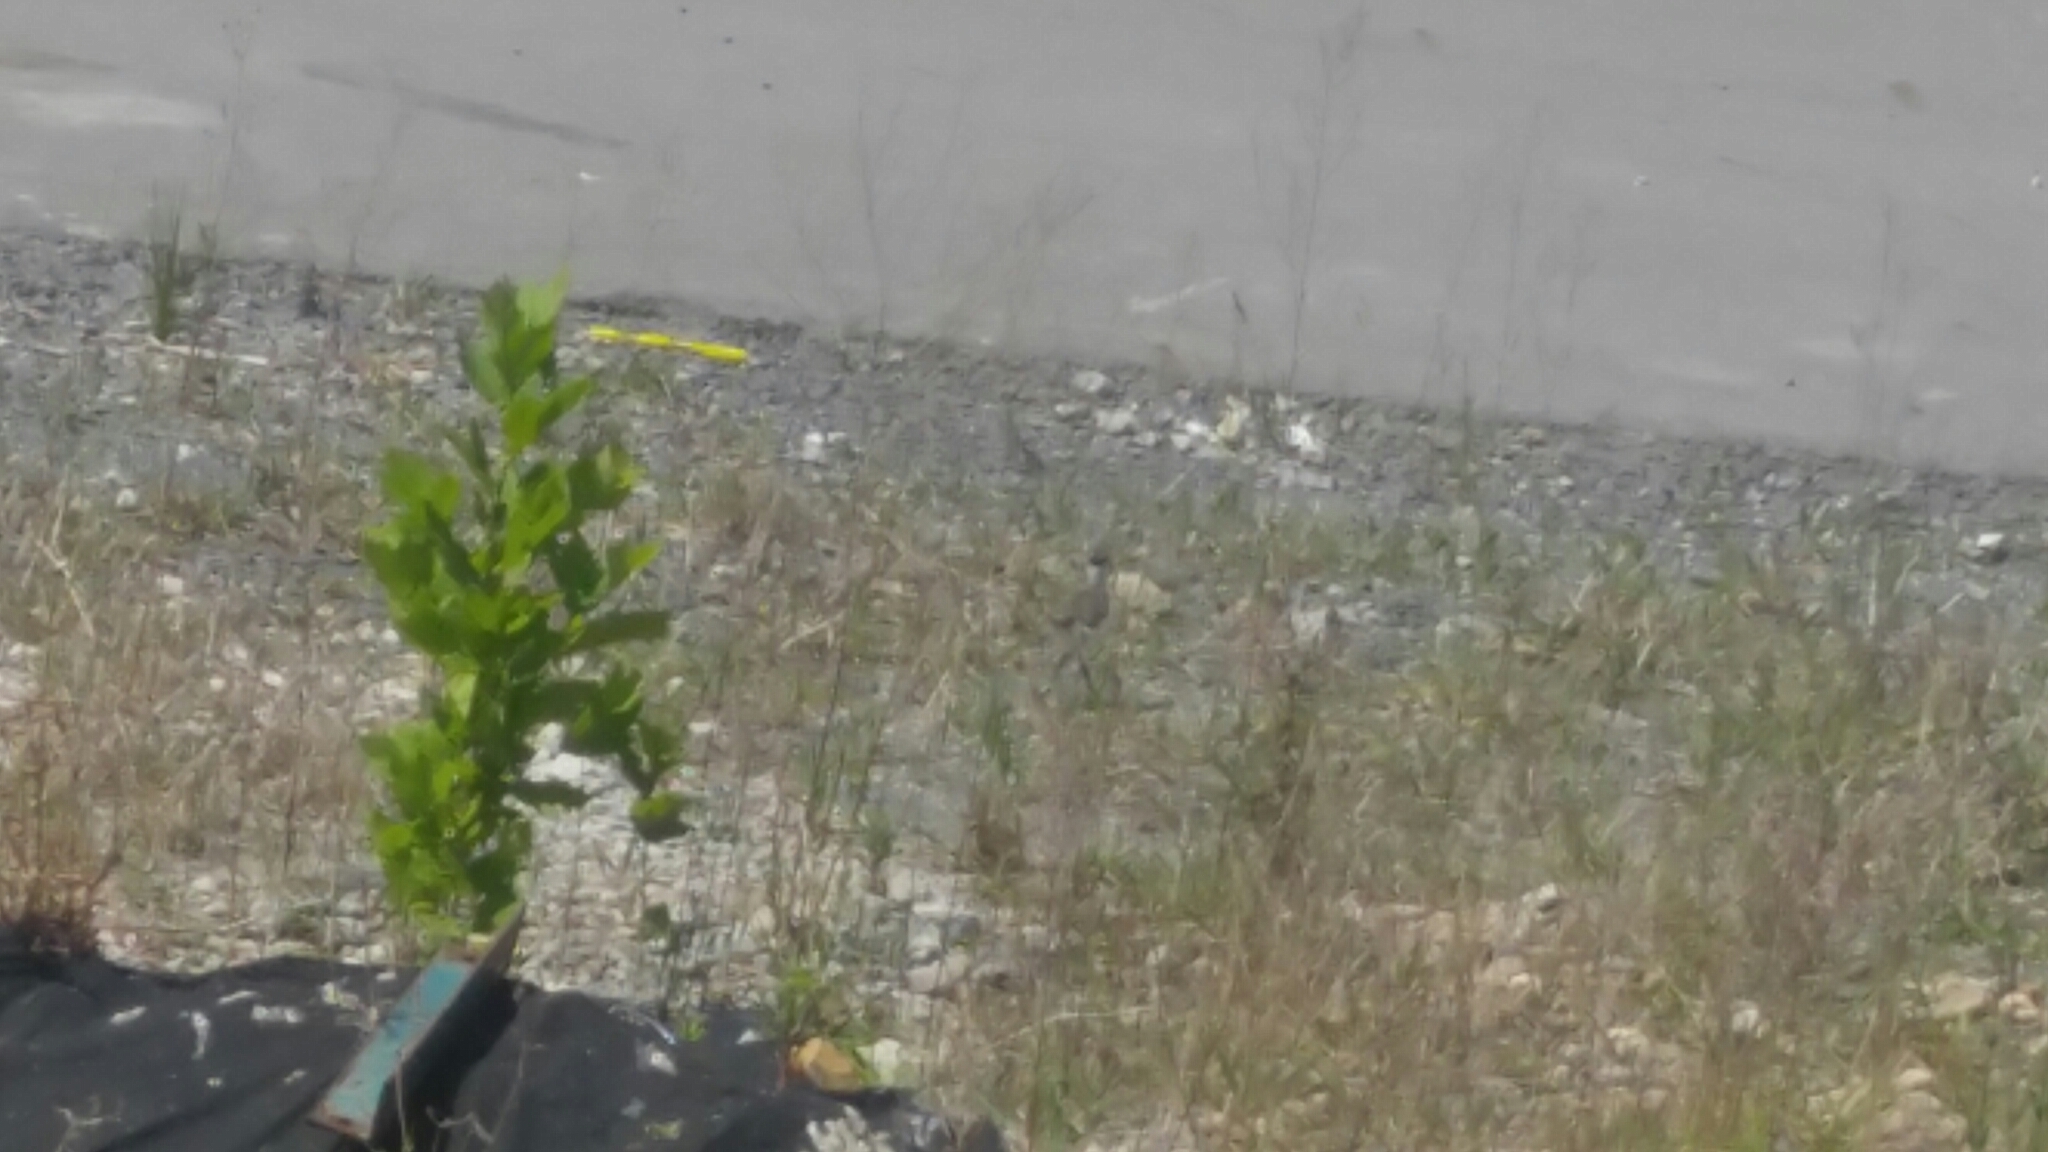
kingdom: Animalia
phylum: Chordata
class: Aves
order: Charadriiformes
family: Charadriidae
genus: Vanellus
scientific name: Vanellus miles
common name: Masked lapwing
